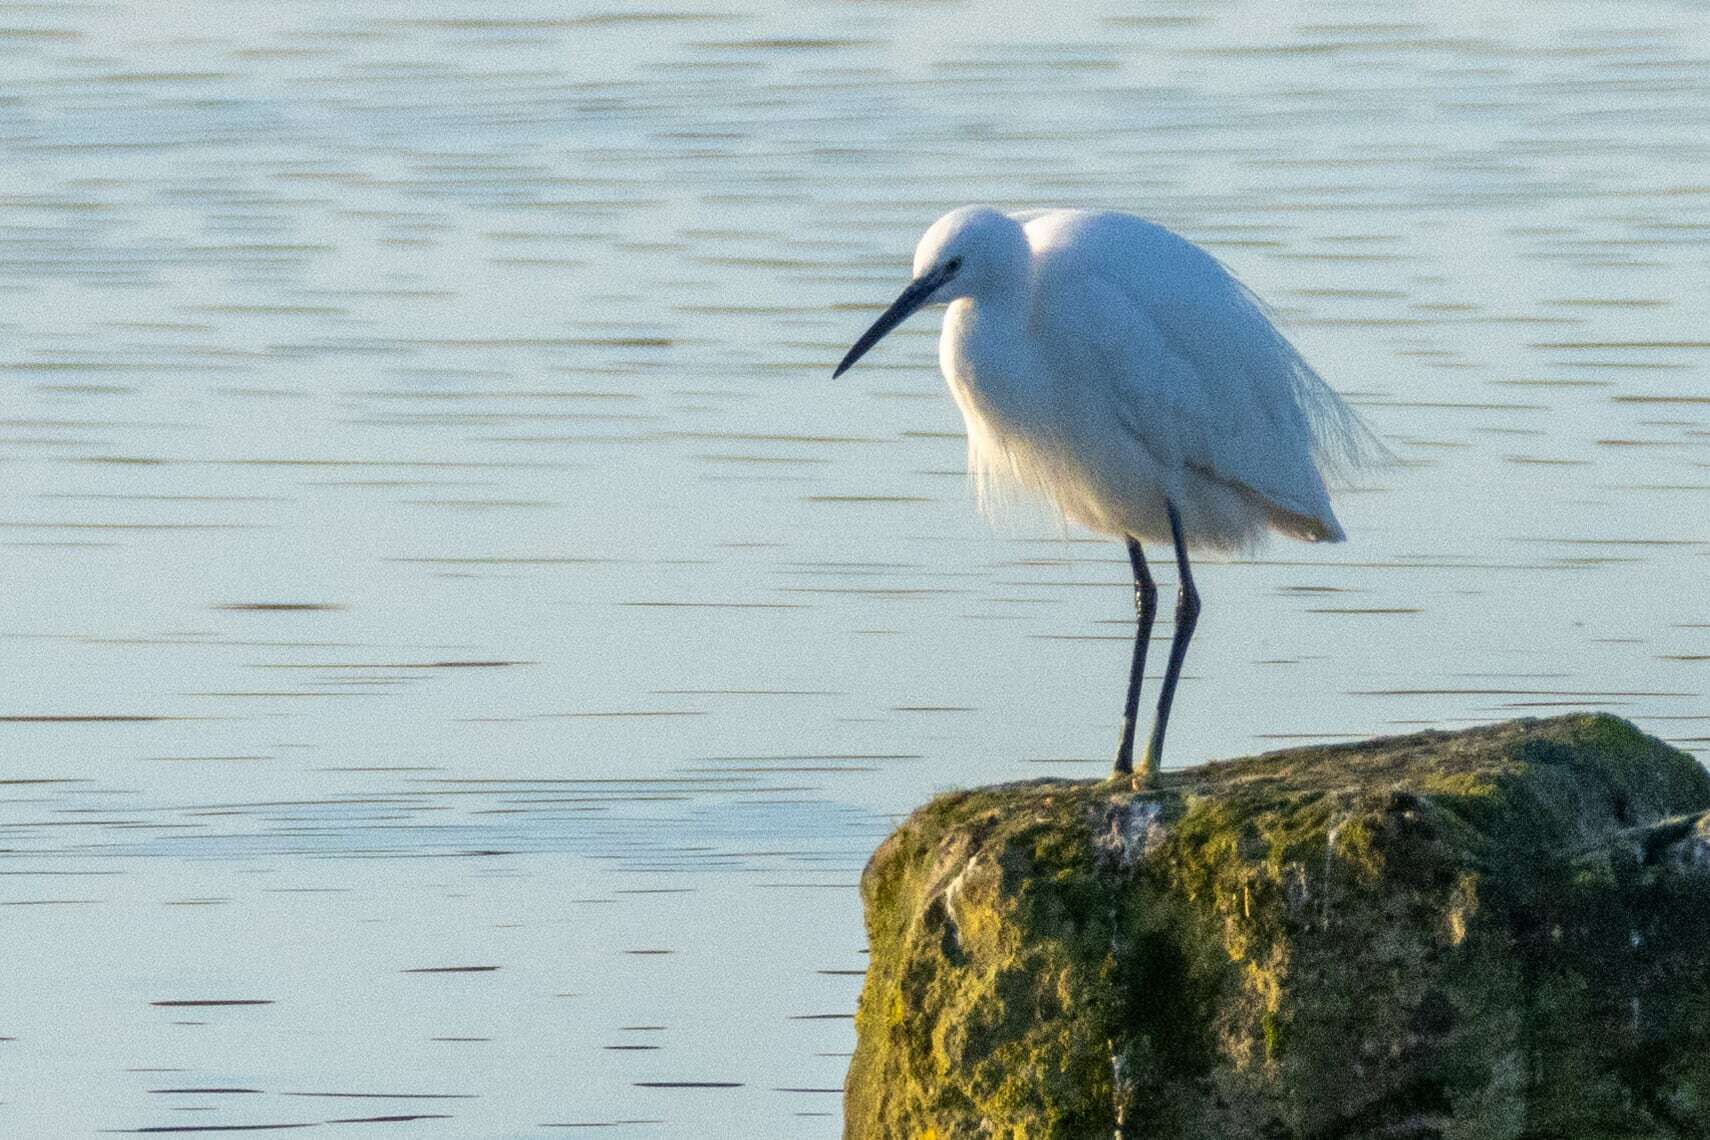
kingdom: Animalia
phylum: Chordata
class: Aves
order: Pelecaniformes
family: Ardeidae
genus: Egretta
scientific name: Egretta garzetta
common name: Little egret
